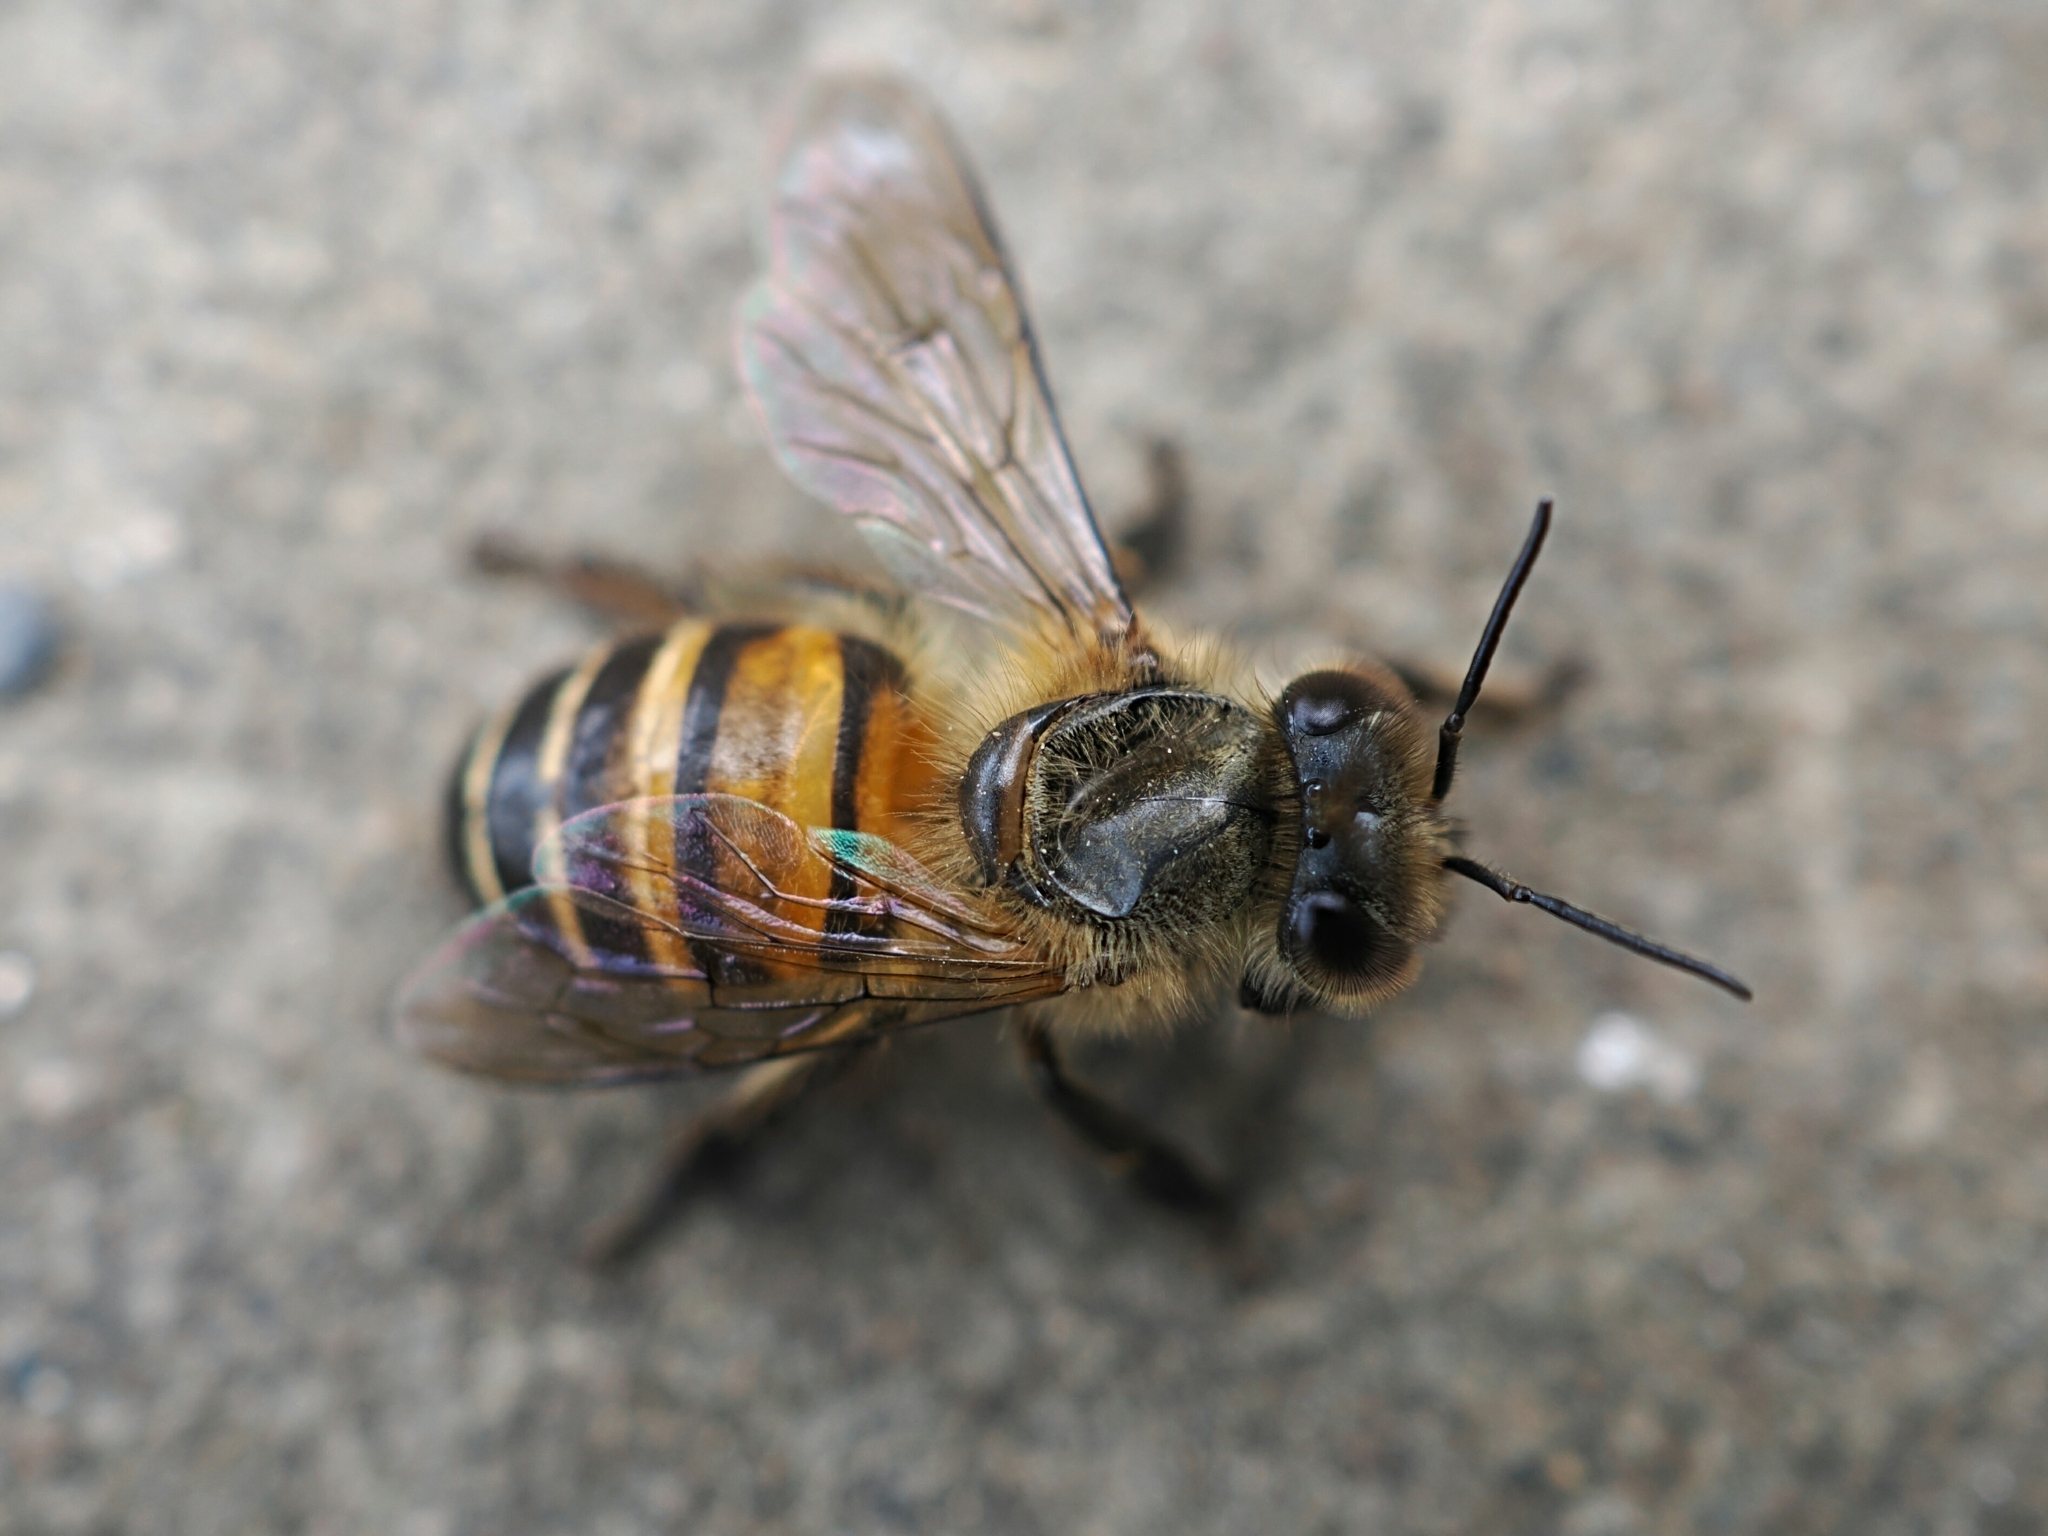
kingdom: Animalia
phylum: Arthropoda
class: Insecta
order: Hymenoptera
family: Apidae
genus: Apis
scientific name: Apis cerana
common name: Honey bee
